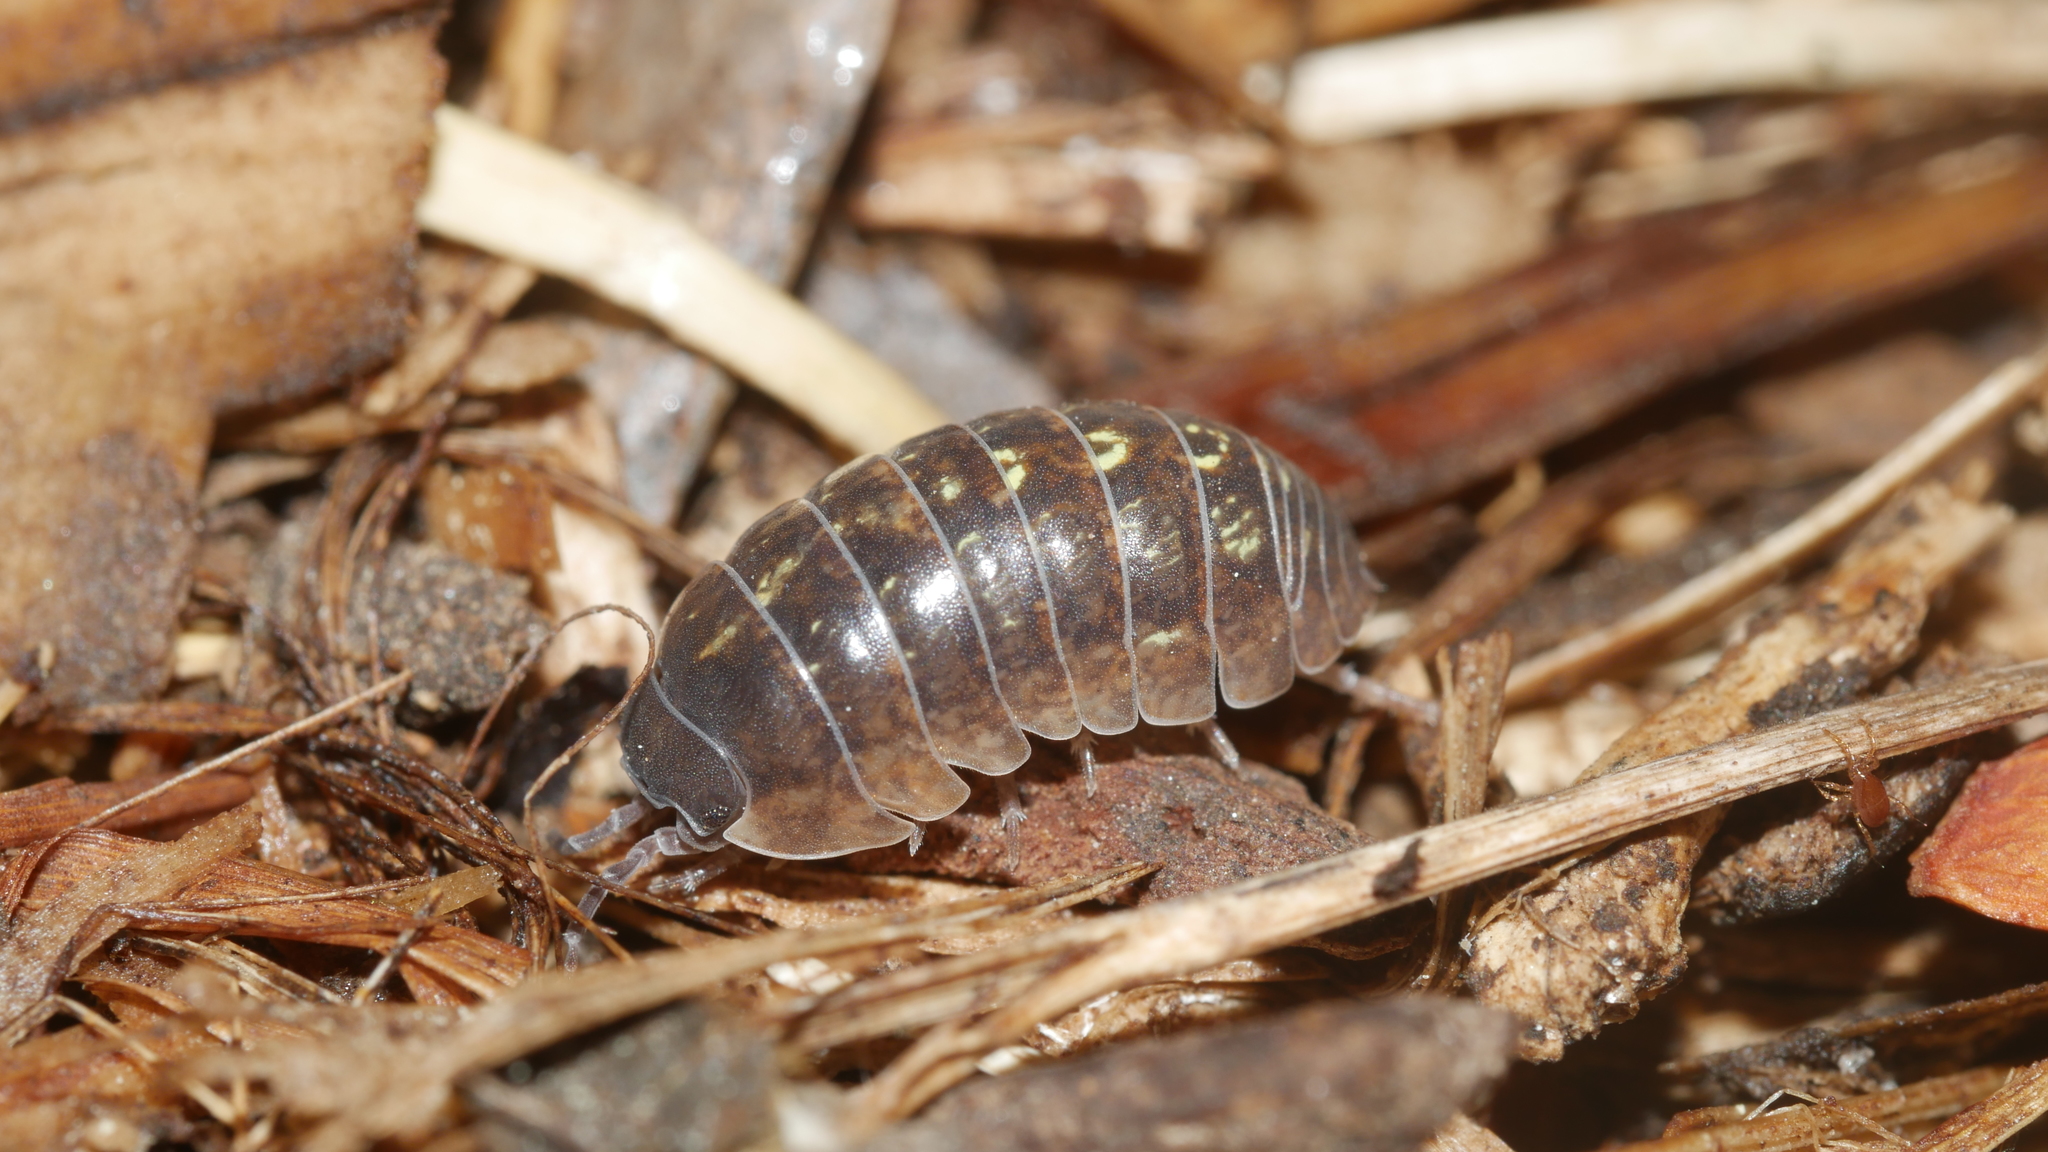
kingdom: Animalia
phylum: Arthropoda
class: Malacostraca
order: Isopoda
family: Armadillidiidae
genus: Armadillidium
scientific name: Armadillidium vulgare
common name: Common pill woodlouse
